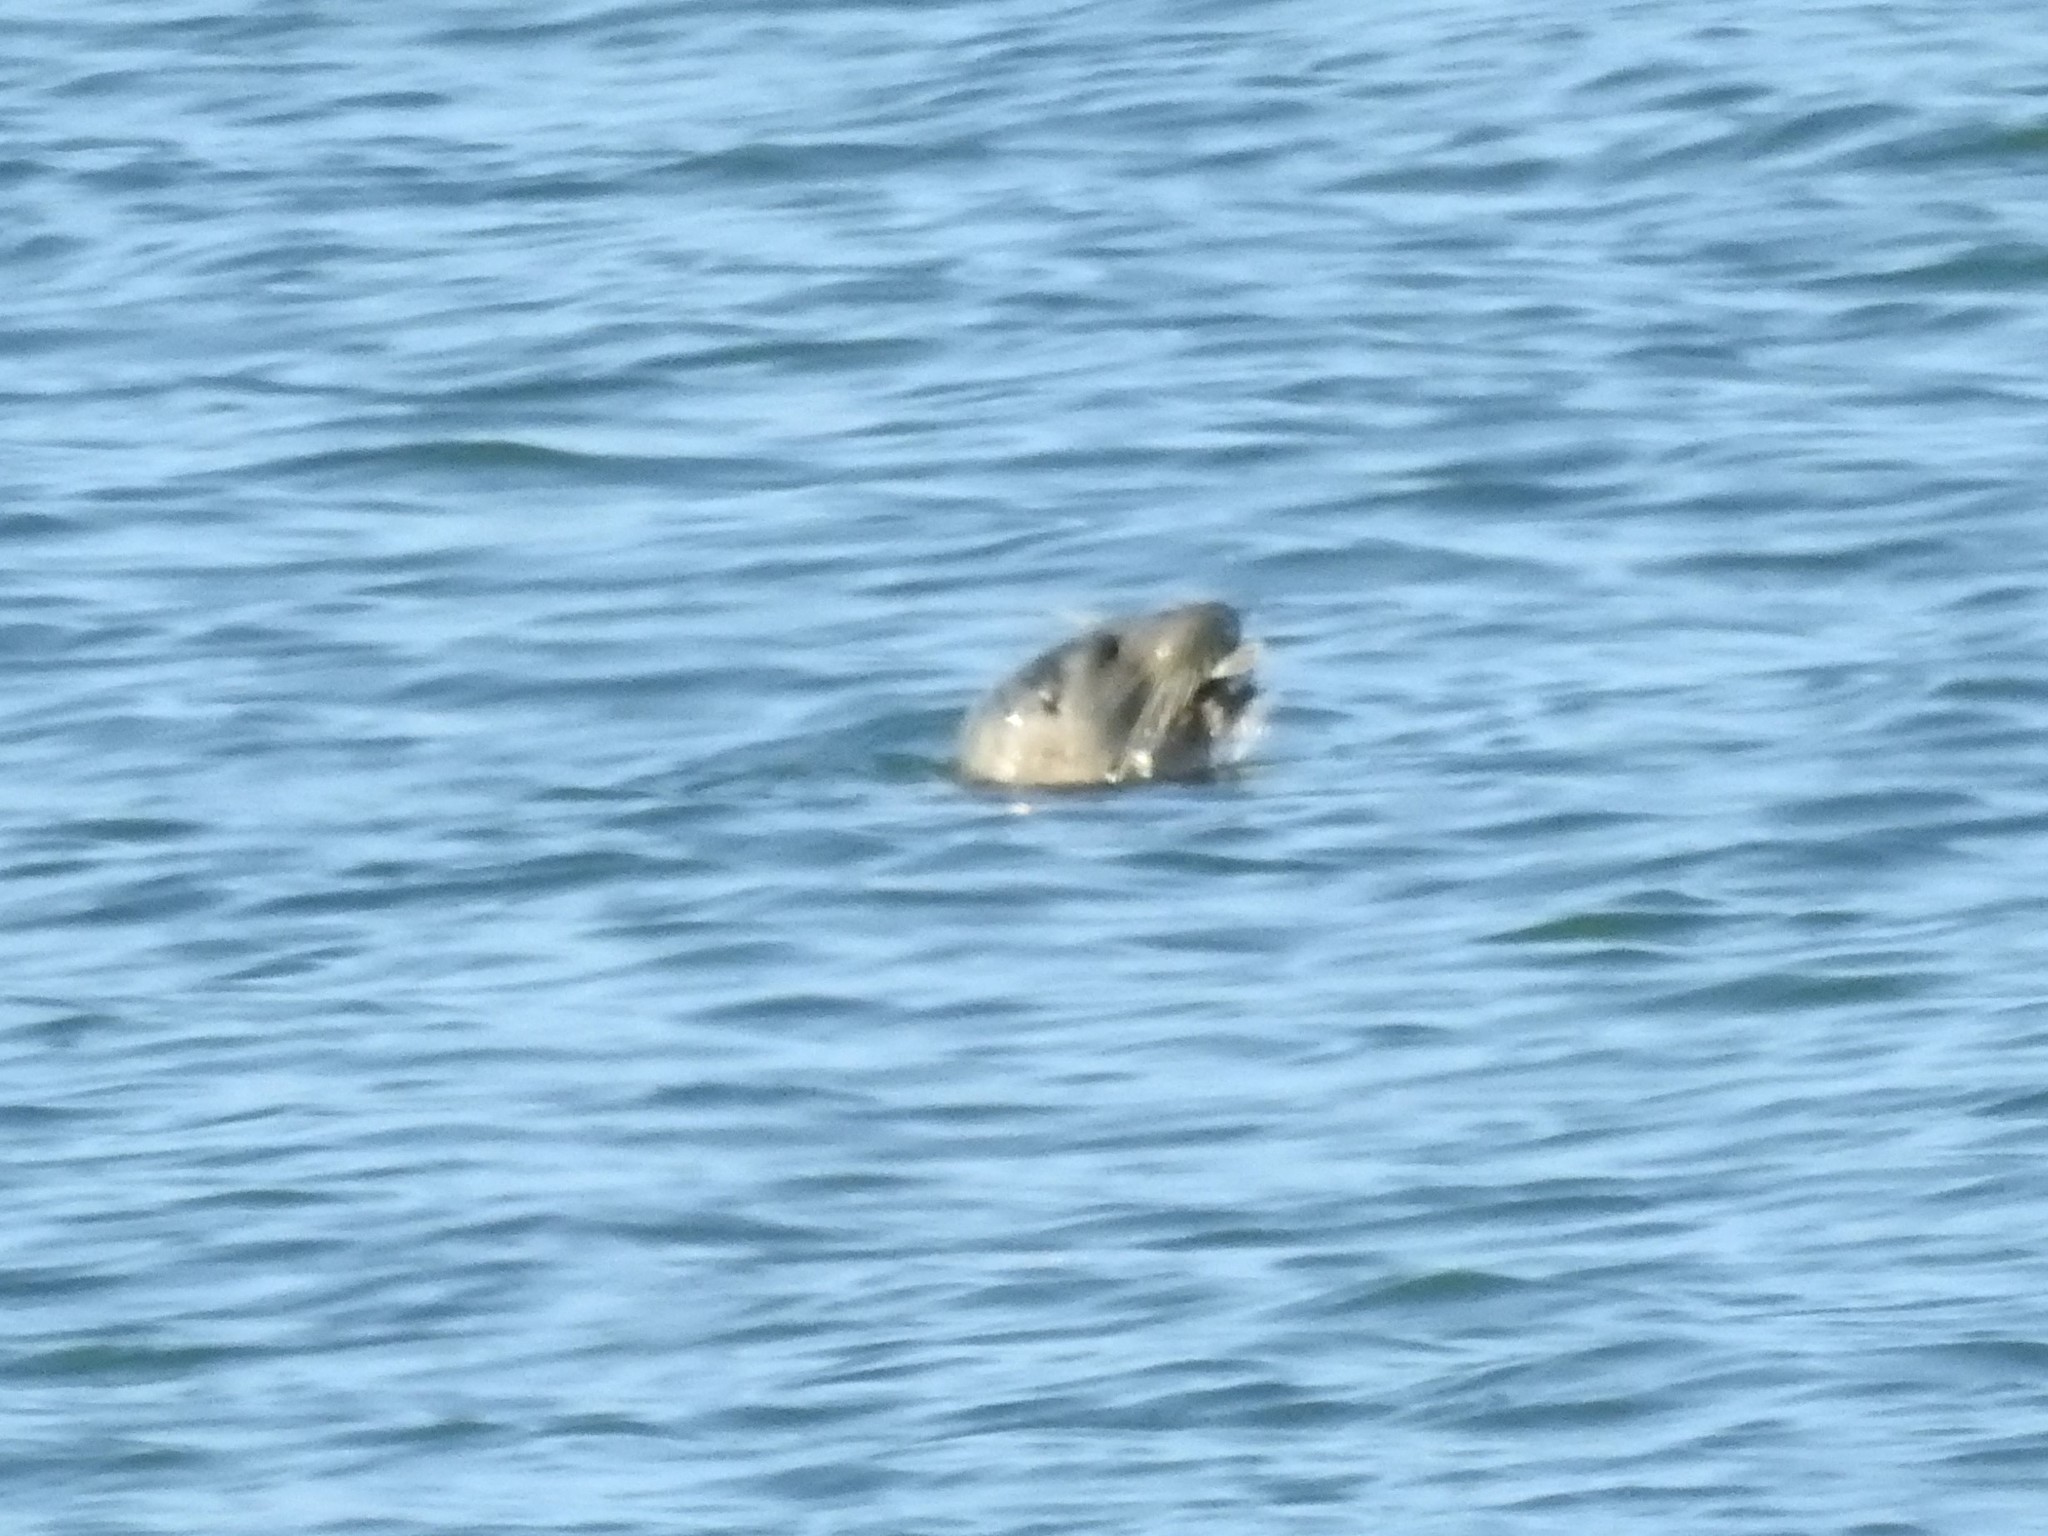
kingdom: Animalia
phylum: Chordata
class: Mammalia
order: Carnivora
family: Phocidae
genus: Phoca
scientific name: Phoca vitulina
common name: Harbor seal
